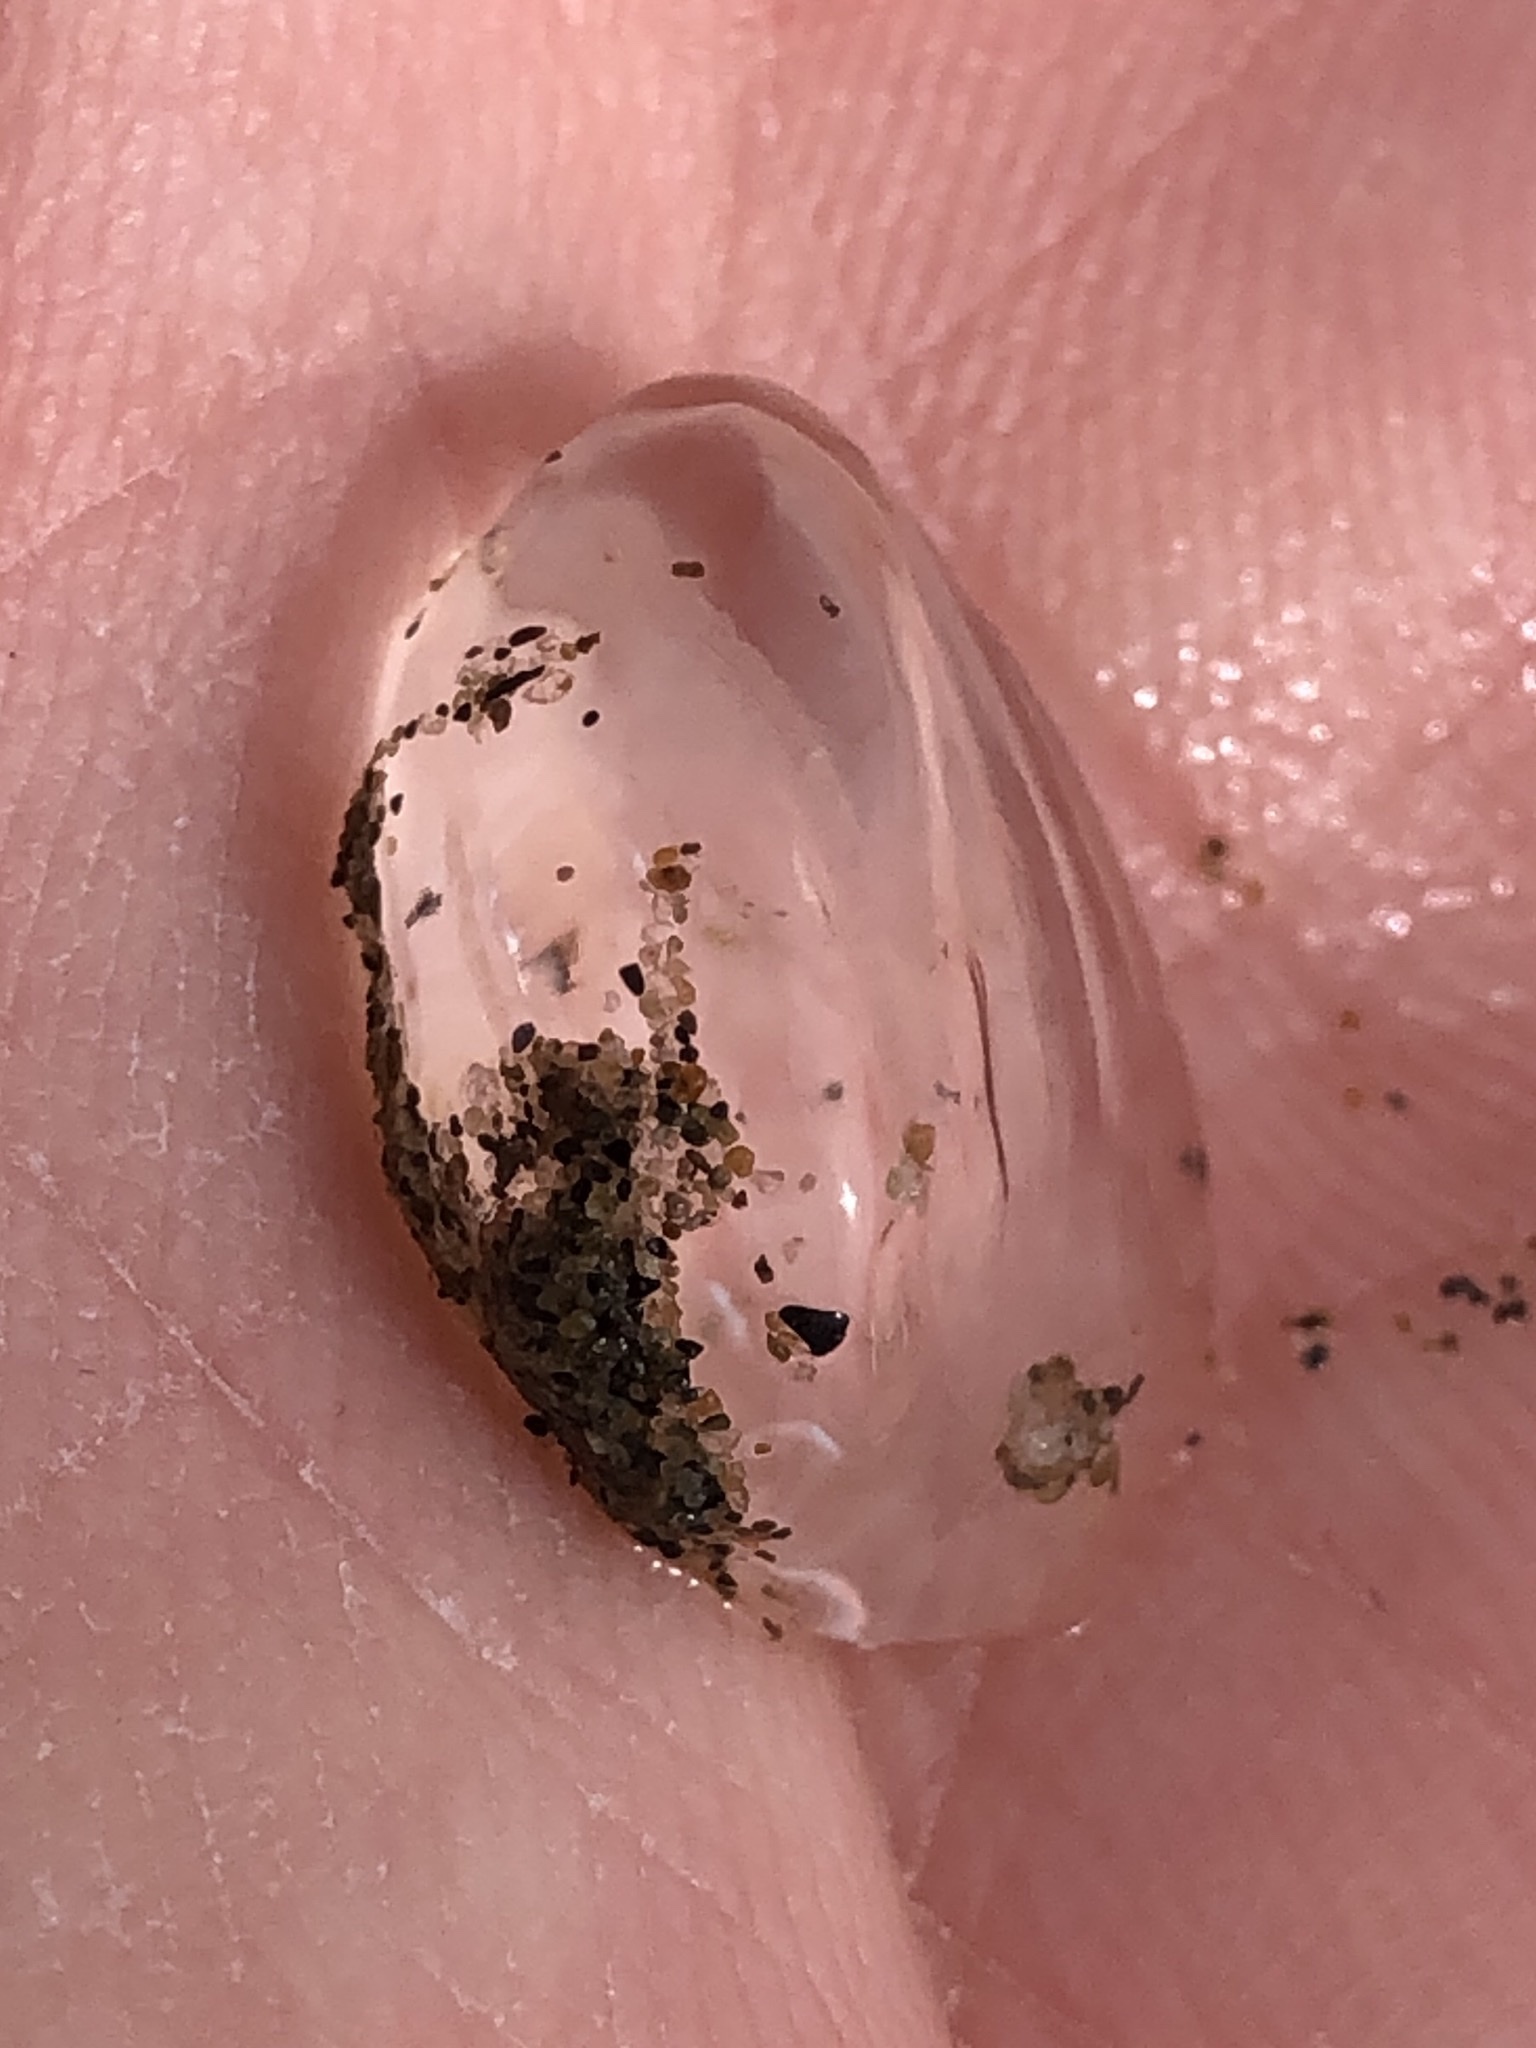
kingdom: Animalia
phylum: Ctenophora
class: Tentaculata
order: Cydippida
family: Pleurobrachiidae
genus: Pleurobrachia
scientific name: Pleurobrachia bachei
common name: Pacific sea gooseberry
